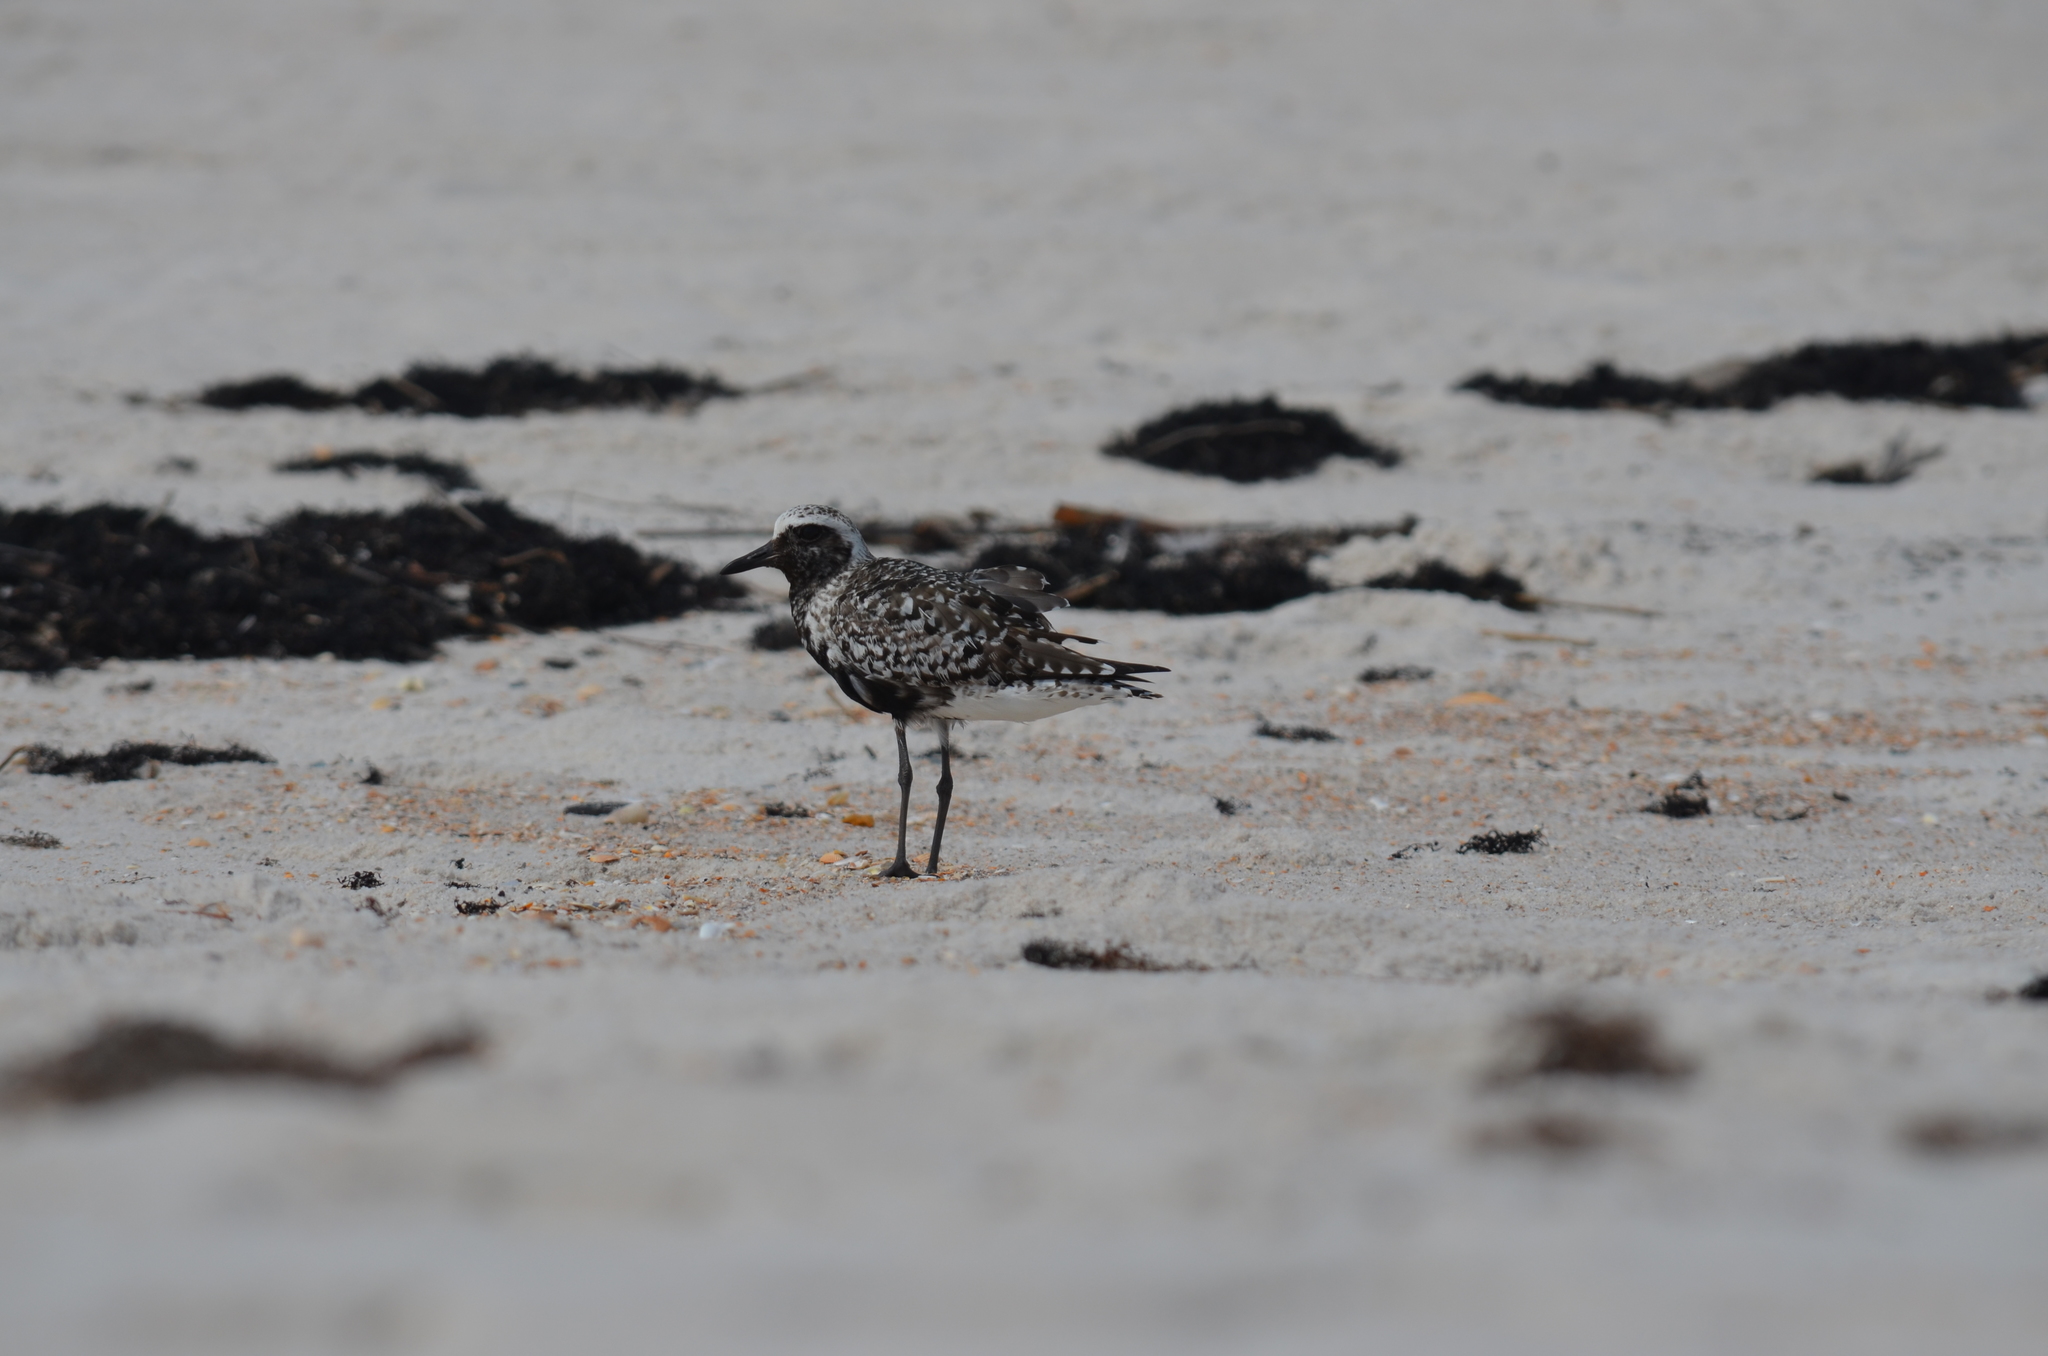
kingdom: Animalia
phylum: Chordata
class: Aves
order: Charadriiformes
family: Charadriidae
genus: Pluvialis
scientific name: Pluvialis squatarola
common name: Grey plover
